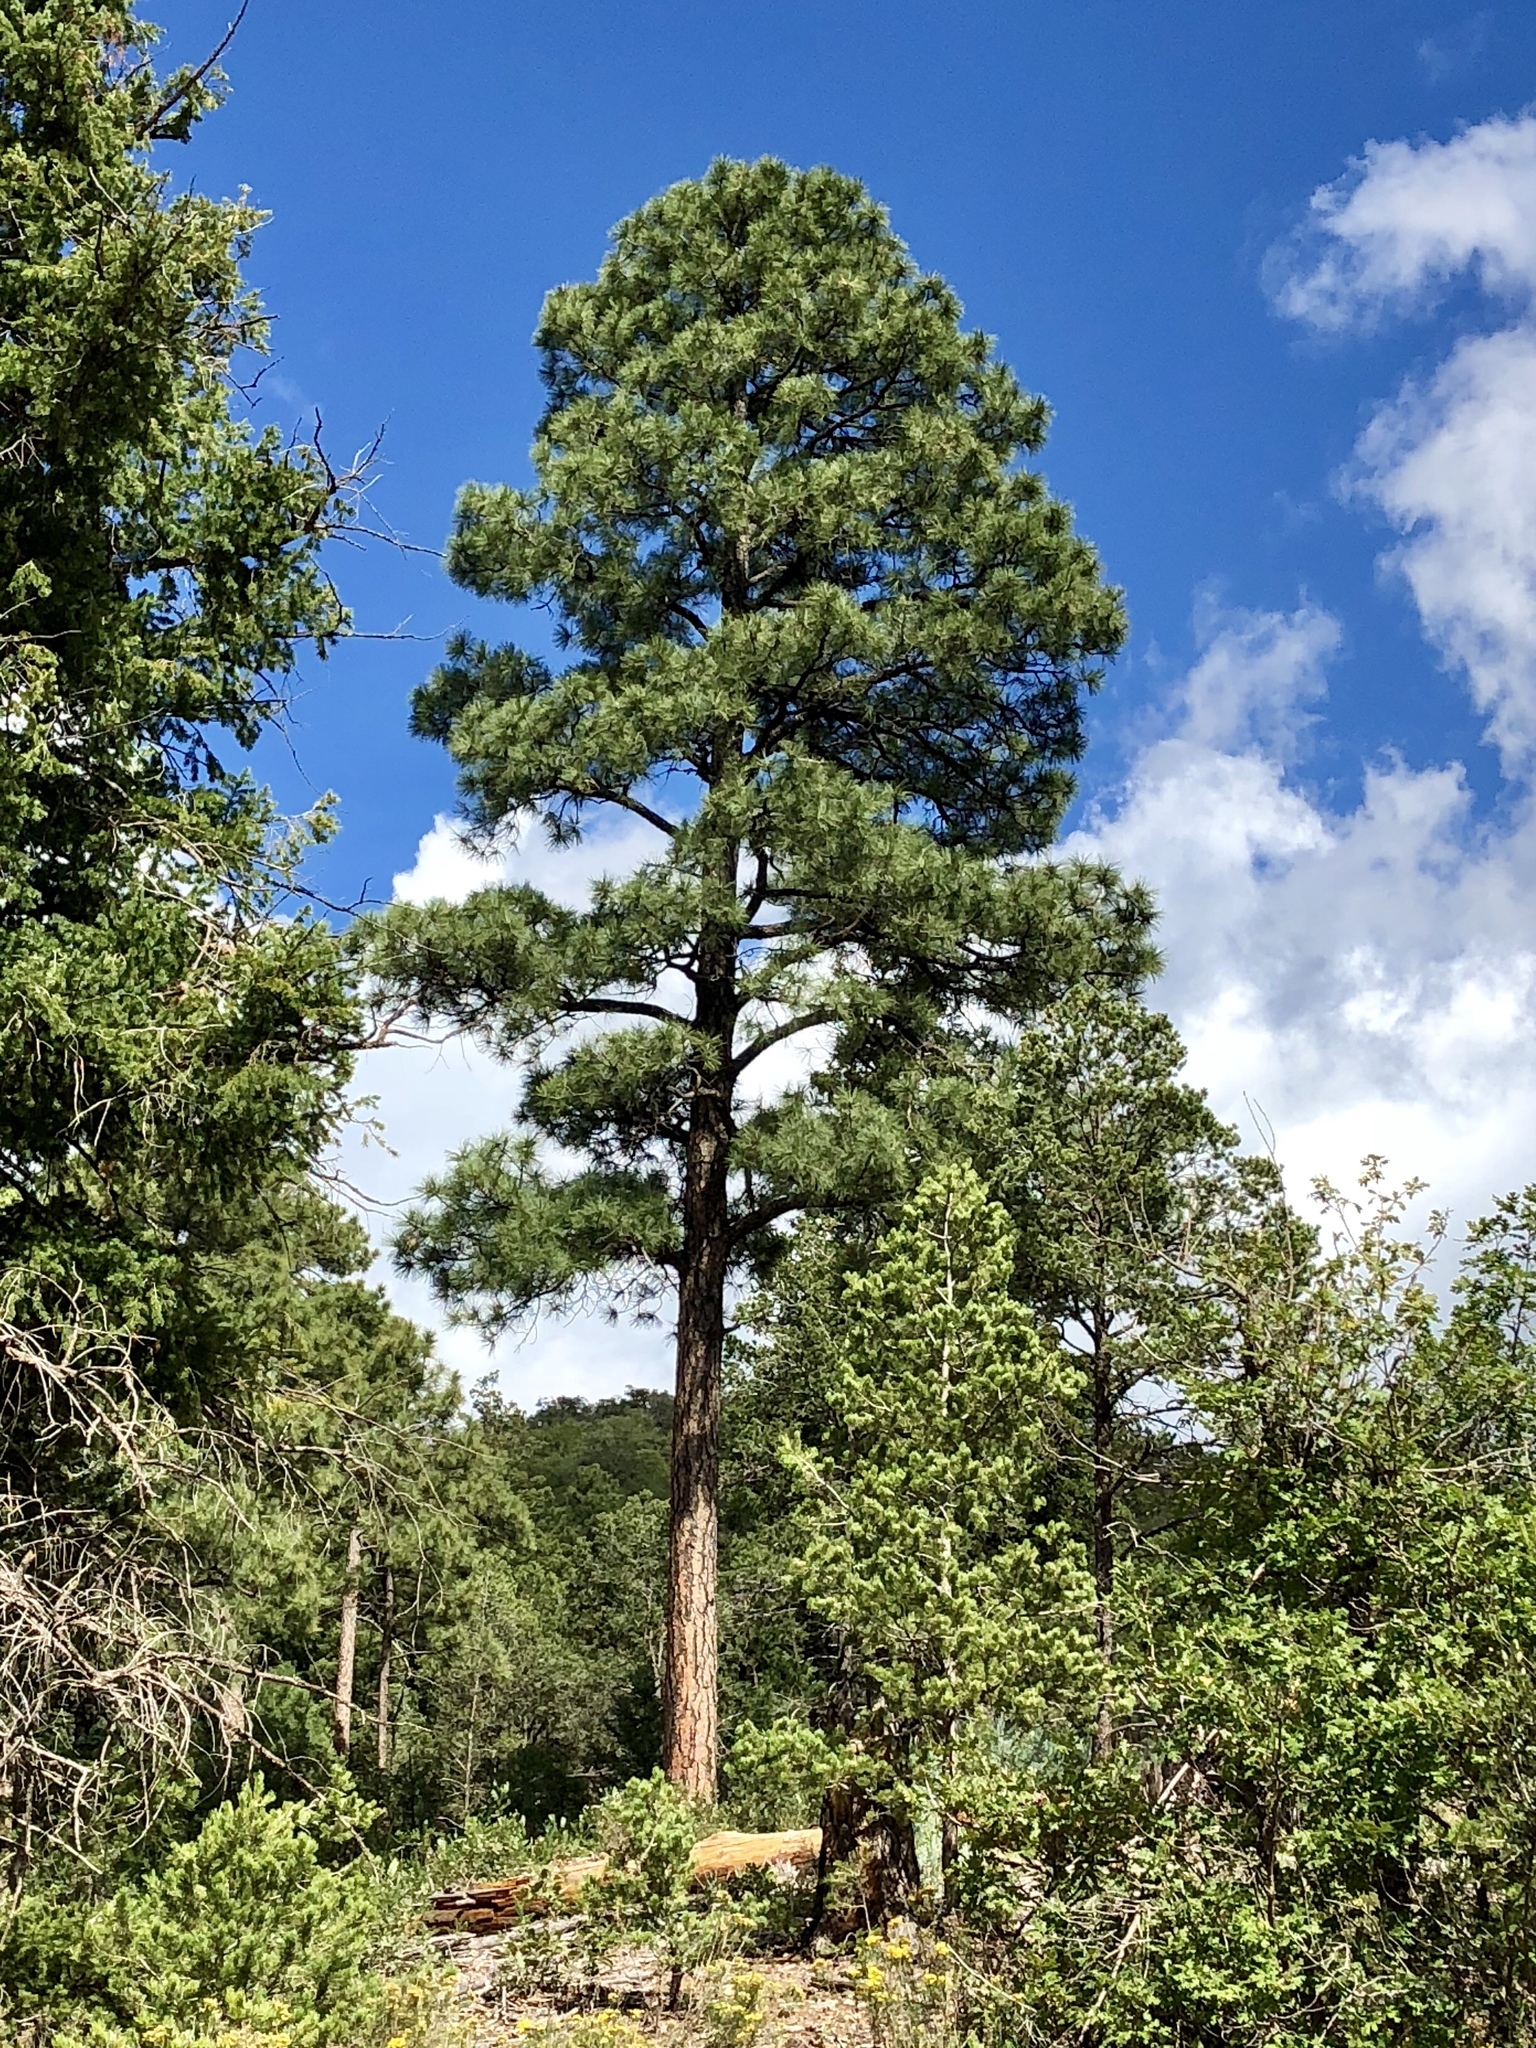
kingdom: Plantae
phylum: Tracheophyta
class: Pinopsida
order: Pinales
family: Pinaceae
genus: Pinus
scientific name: Pinus ponderosa
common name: Western yellow-pine
